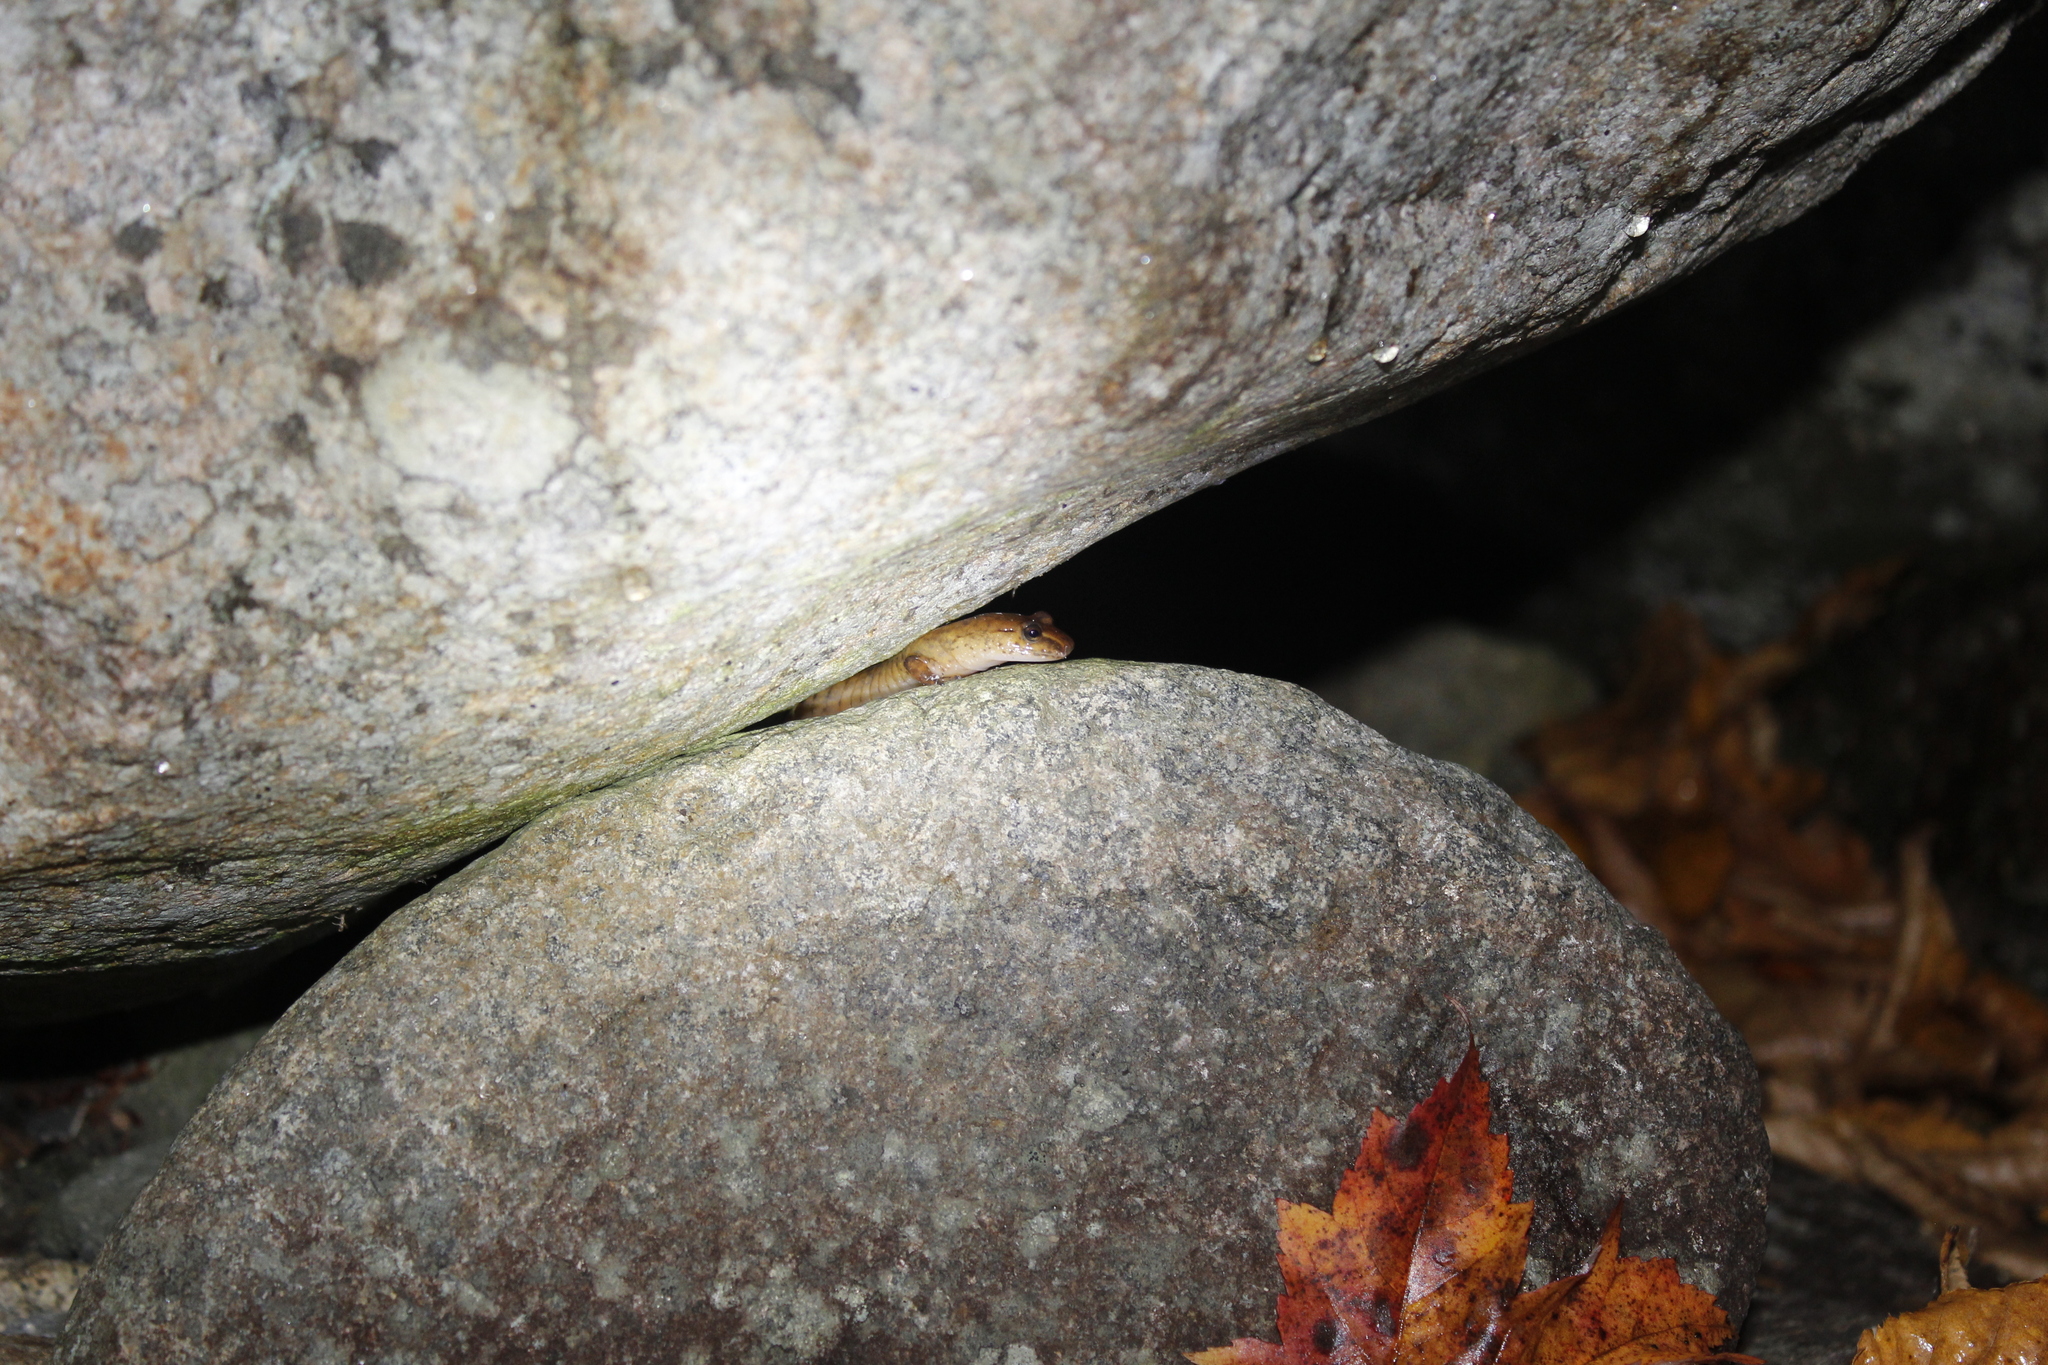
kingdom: Animalia
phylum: Chordata
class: Amphibia
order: Caudata
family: Plethodontidae
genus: Gyrinophilus
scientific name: Gyrinophilus porphyriticus
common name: Spring salamander
